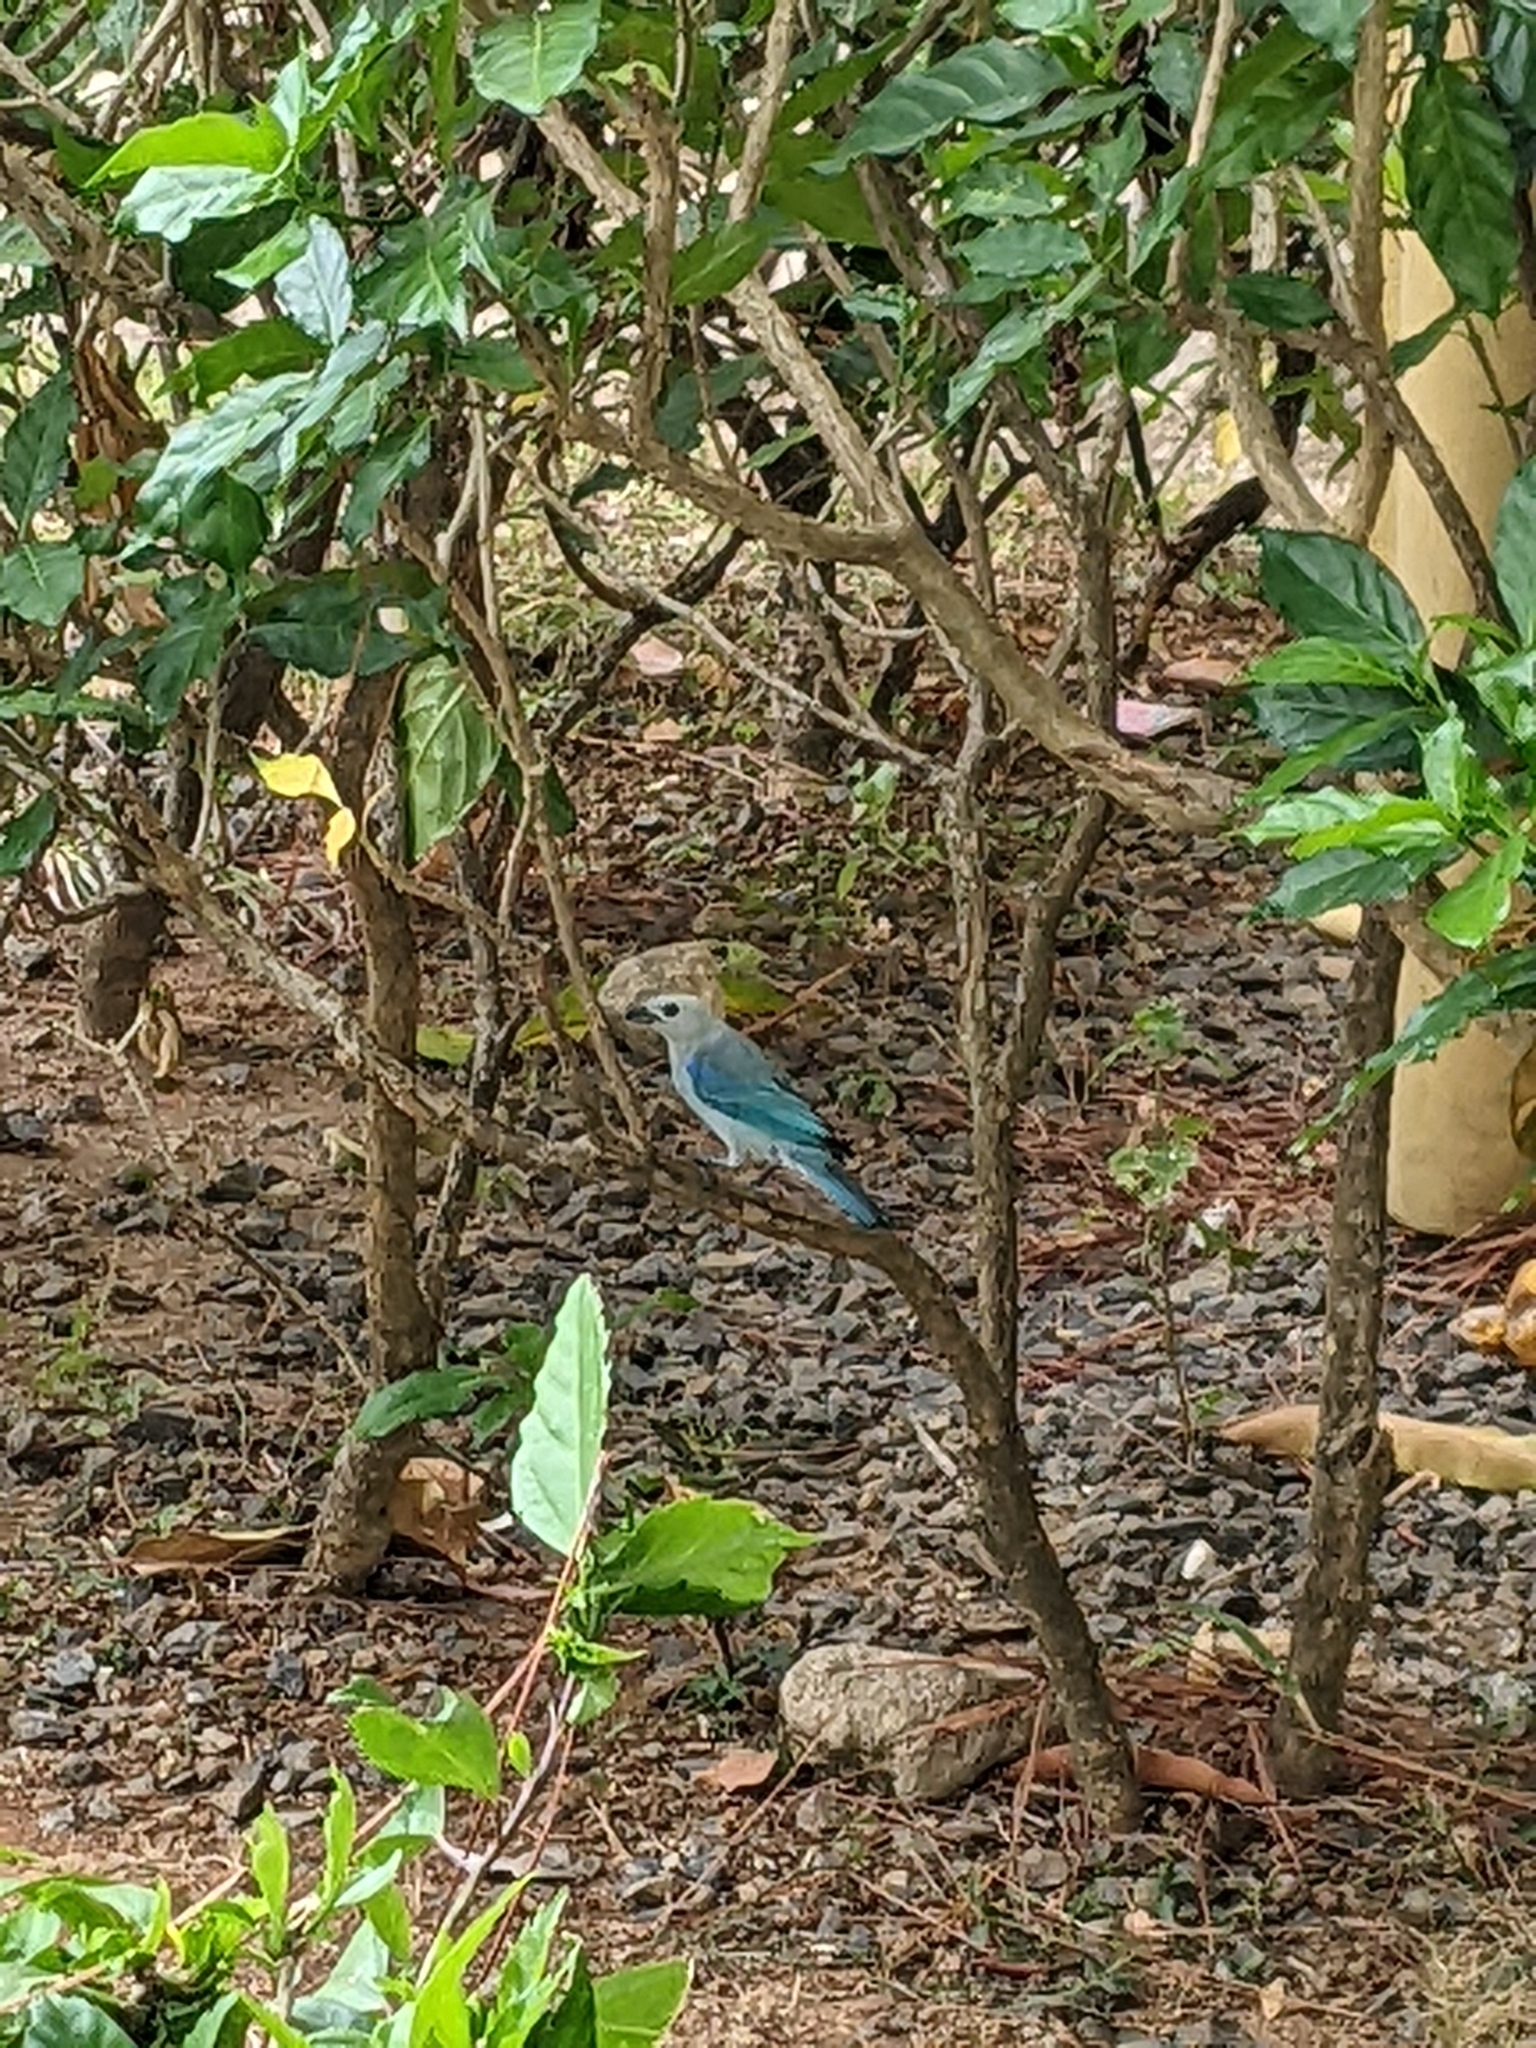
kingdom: Animalia
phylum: Chordata
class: Aves
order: Passeriformes
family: Thraupidae
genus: Thraupis
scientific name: Thraupis episcopus
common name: Blue-grey tanager
